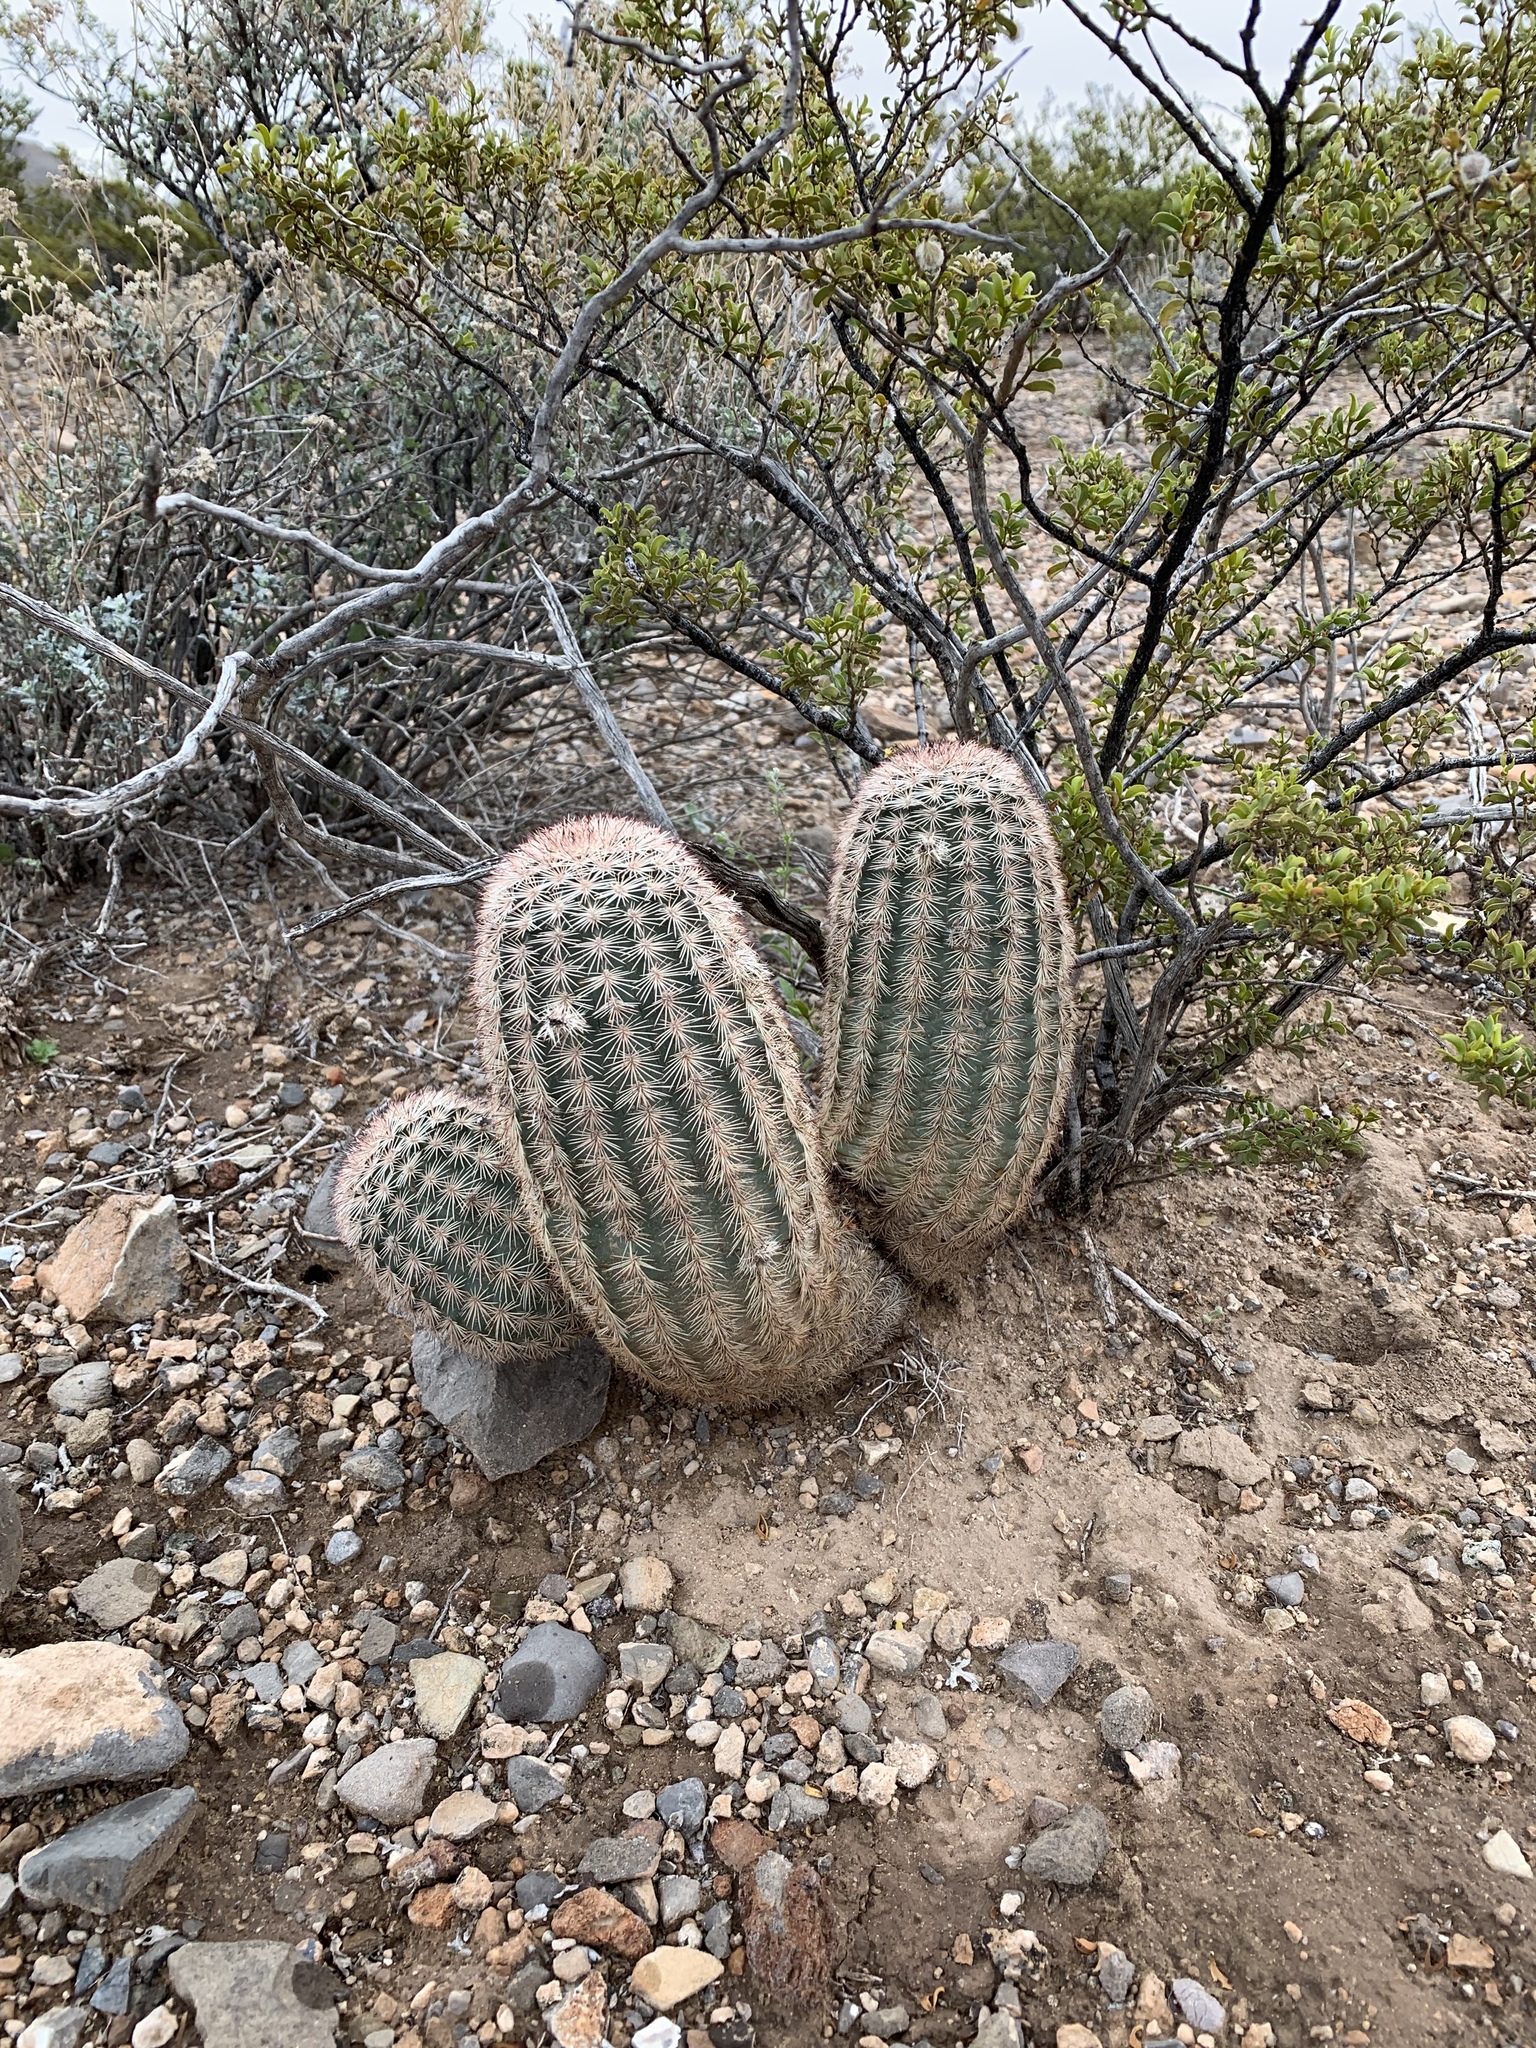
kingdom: Plantae
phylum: Tracheophyta
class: Magnoliopsida
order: Caryophyllales
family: Cactaceae
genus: Echinocereus
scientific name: Echinocereus dasyacanthus
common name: Spiny hedgehog cactus
